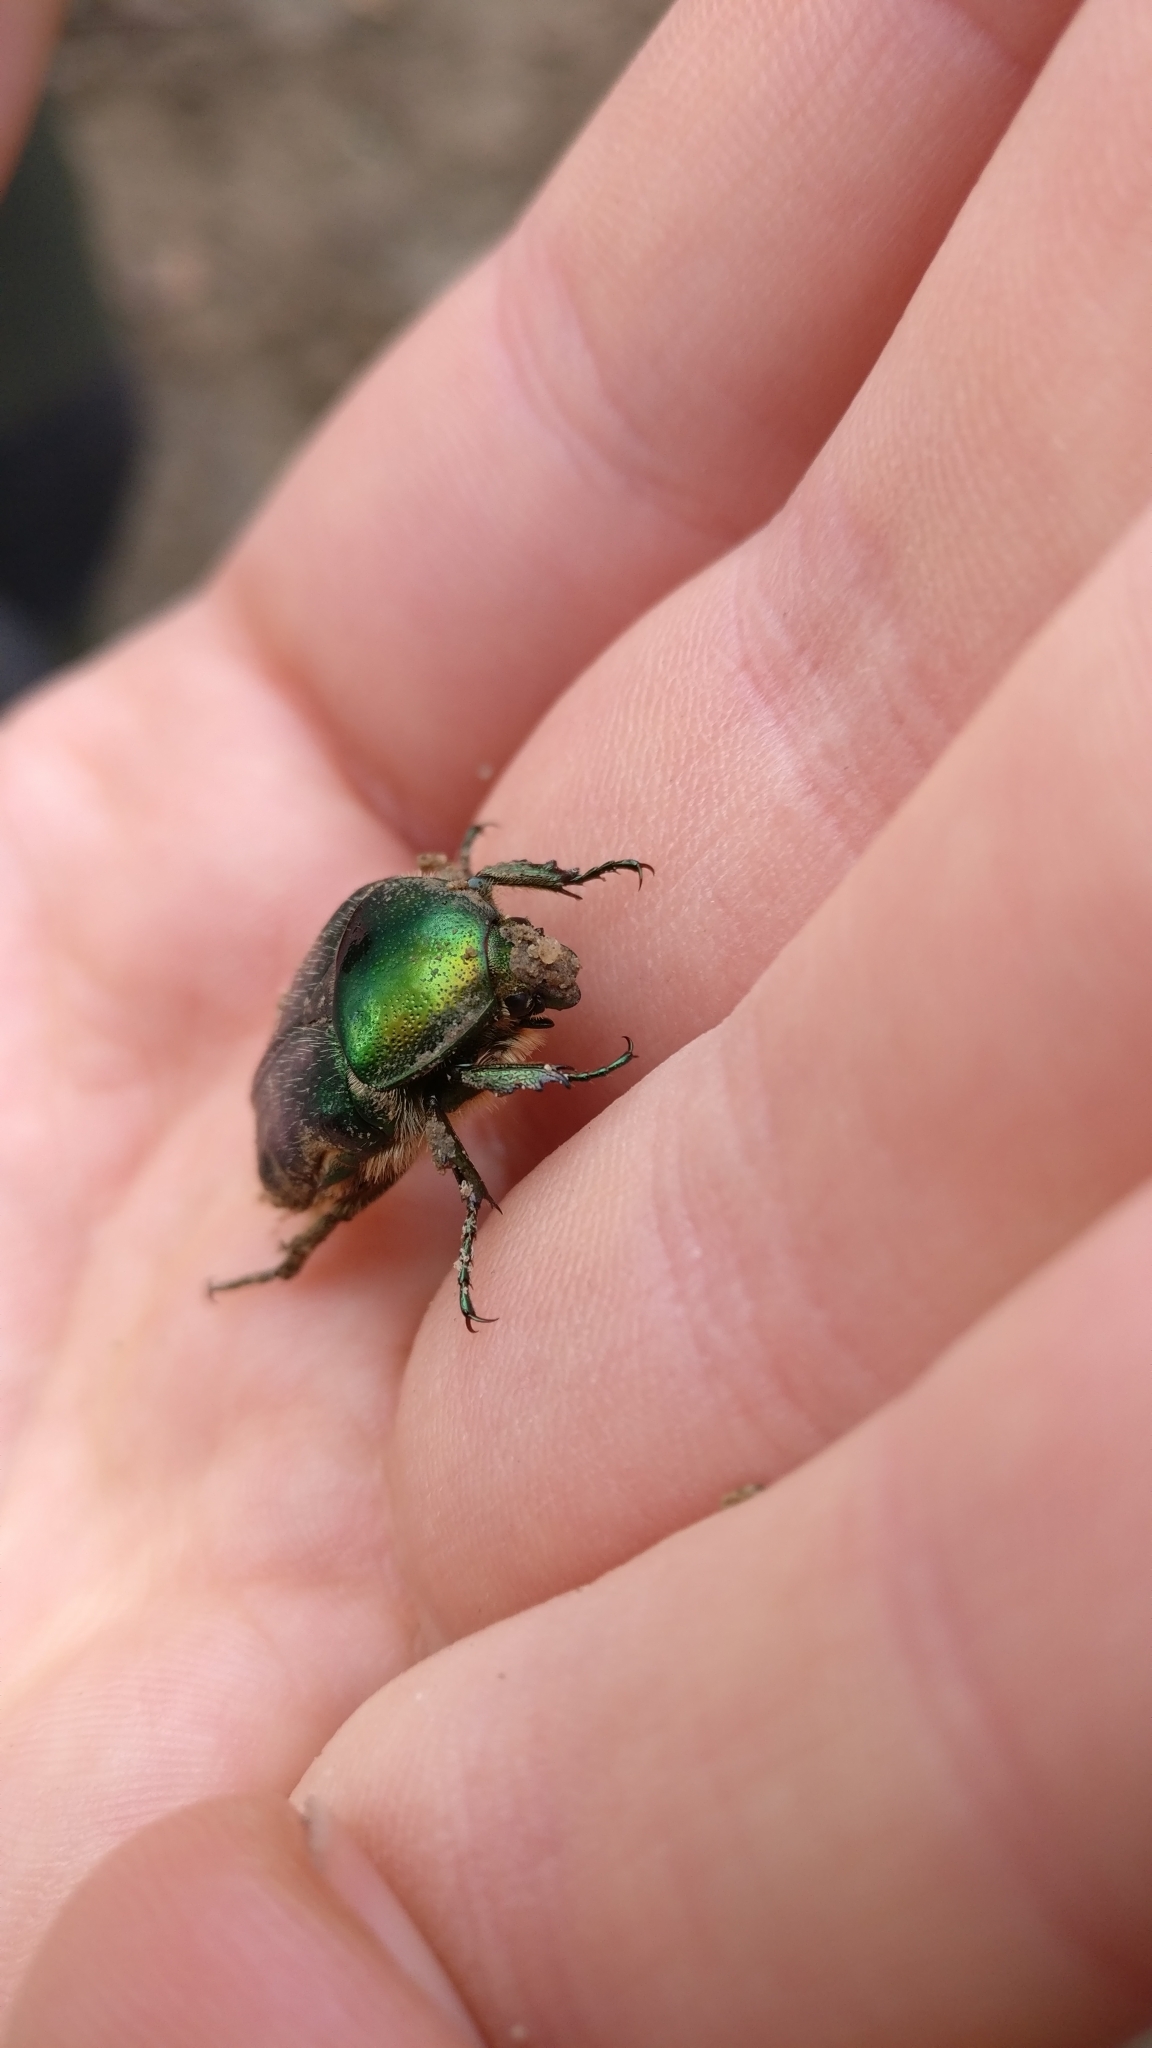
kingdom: Animalia
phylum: Arthropoda
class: Insecta
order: Coleoptera
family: Scarabaeidae
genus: Cetonia
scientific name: Cetonia aurata
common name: Rose chafer
